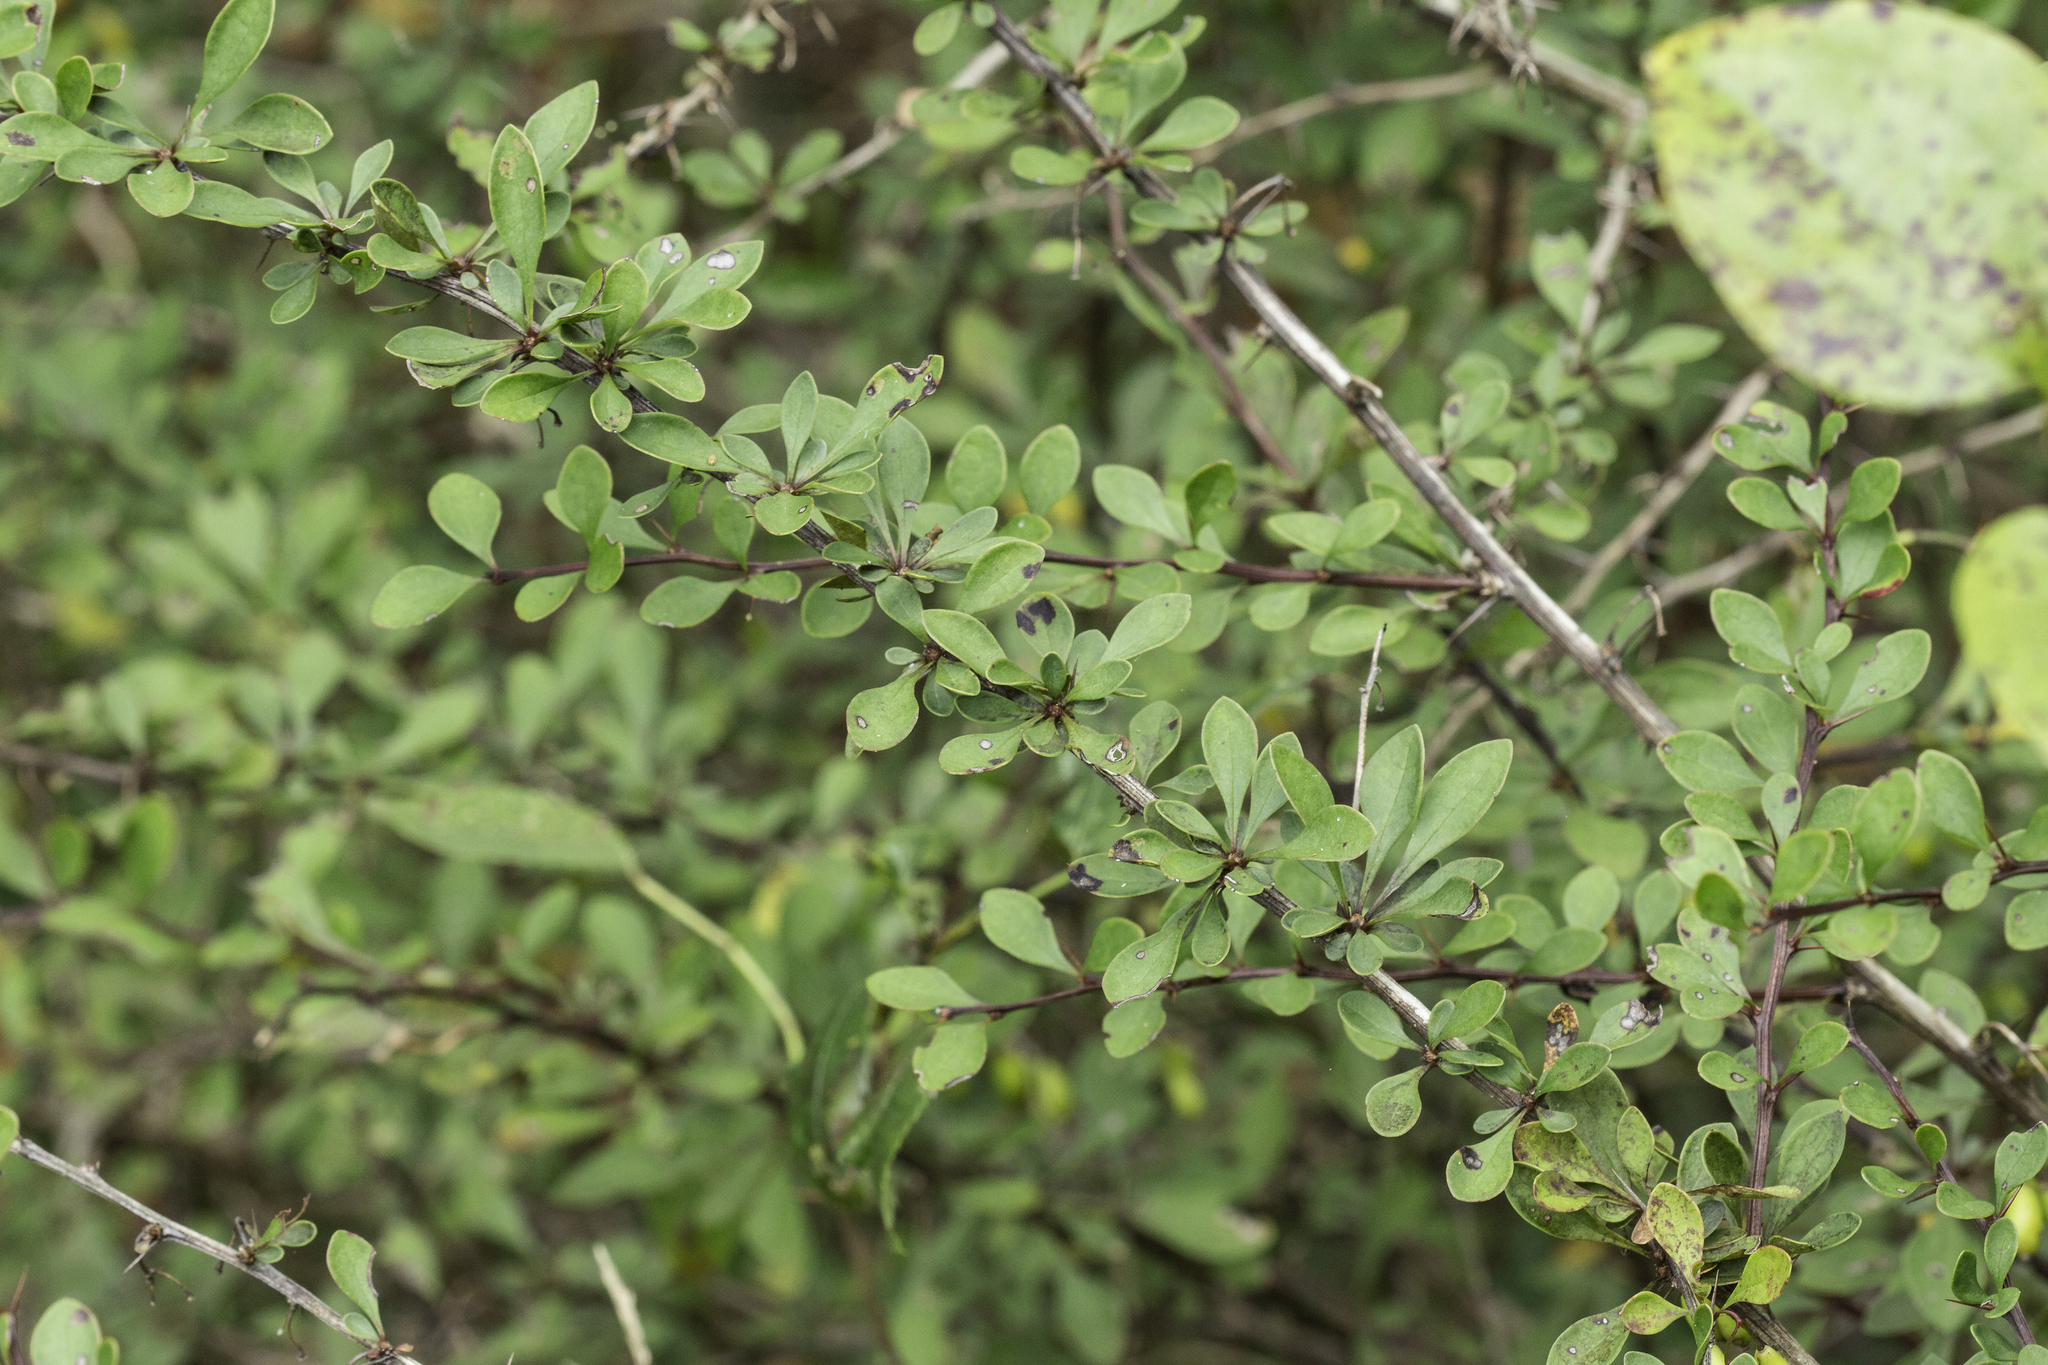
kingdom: Plantae
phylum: Tracheophyta
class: Magnoliopsida
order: Ranunculales
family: Berberidaceae
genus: Berberis
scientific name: Berberis thunbergii
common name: Japanese barberry
